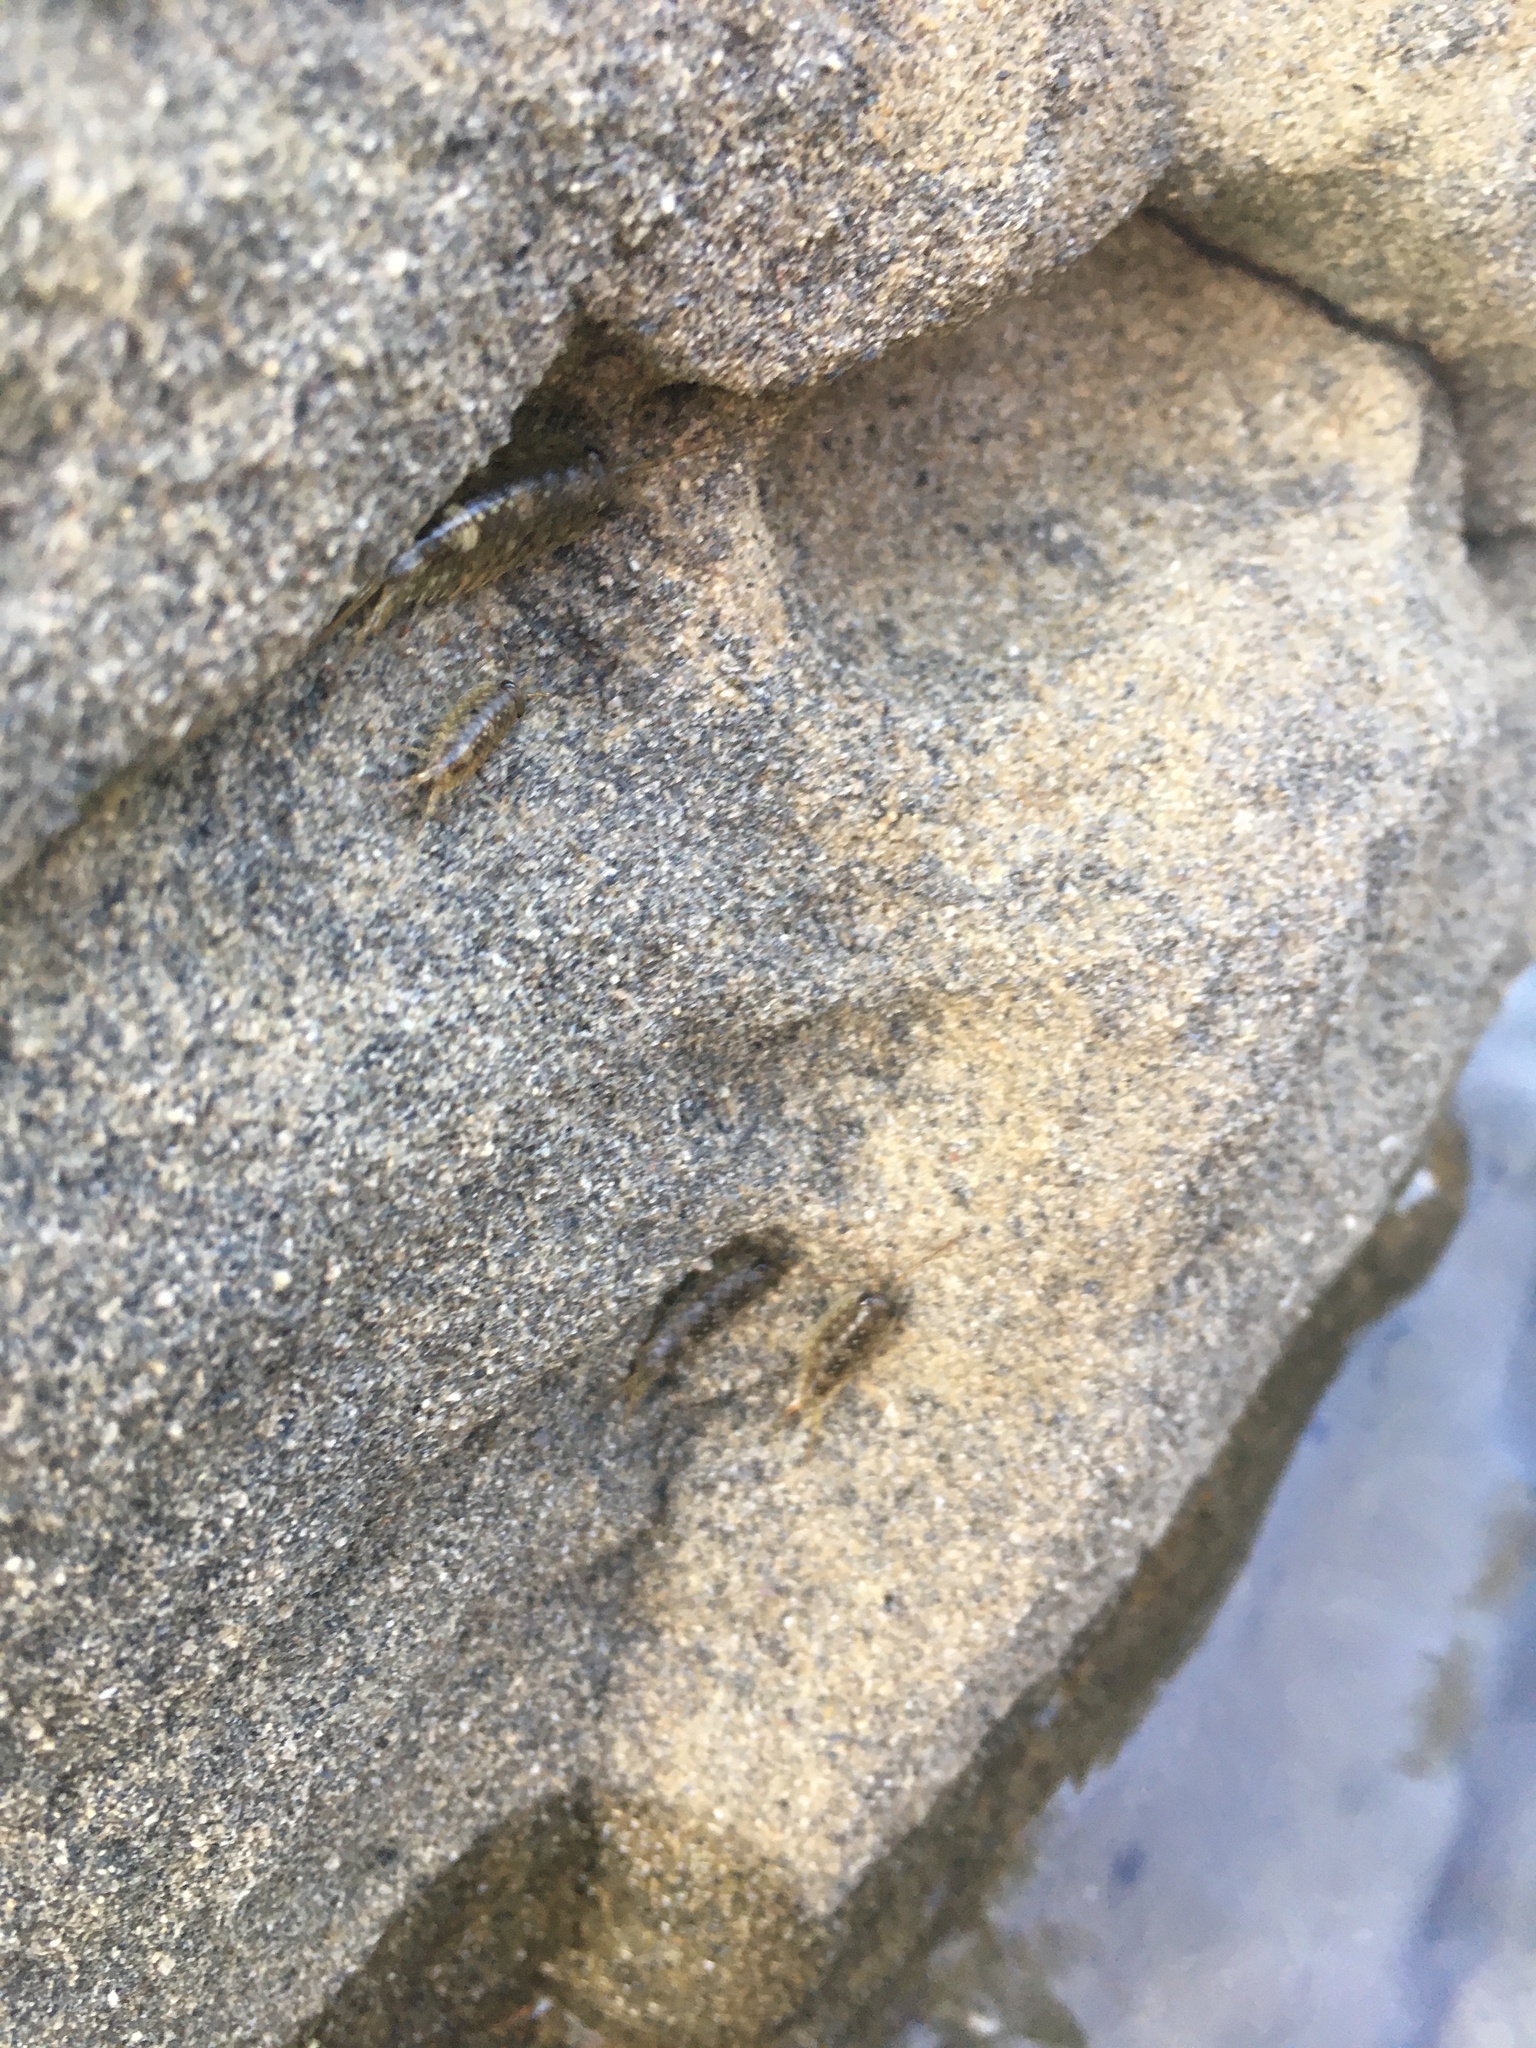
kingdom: Animalia
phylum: Arthropoda
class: Malacostraca
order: Isopoda
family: Ligiidae
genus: Ligia
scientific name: Ligia occidentalis
